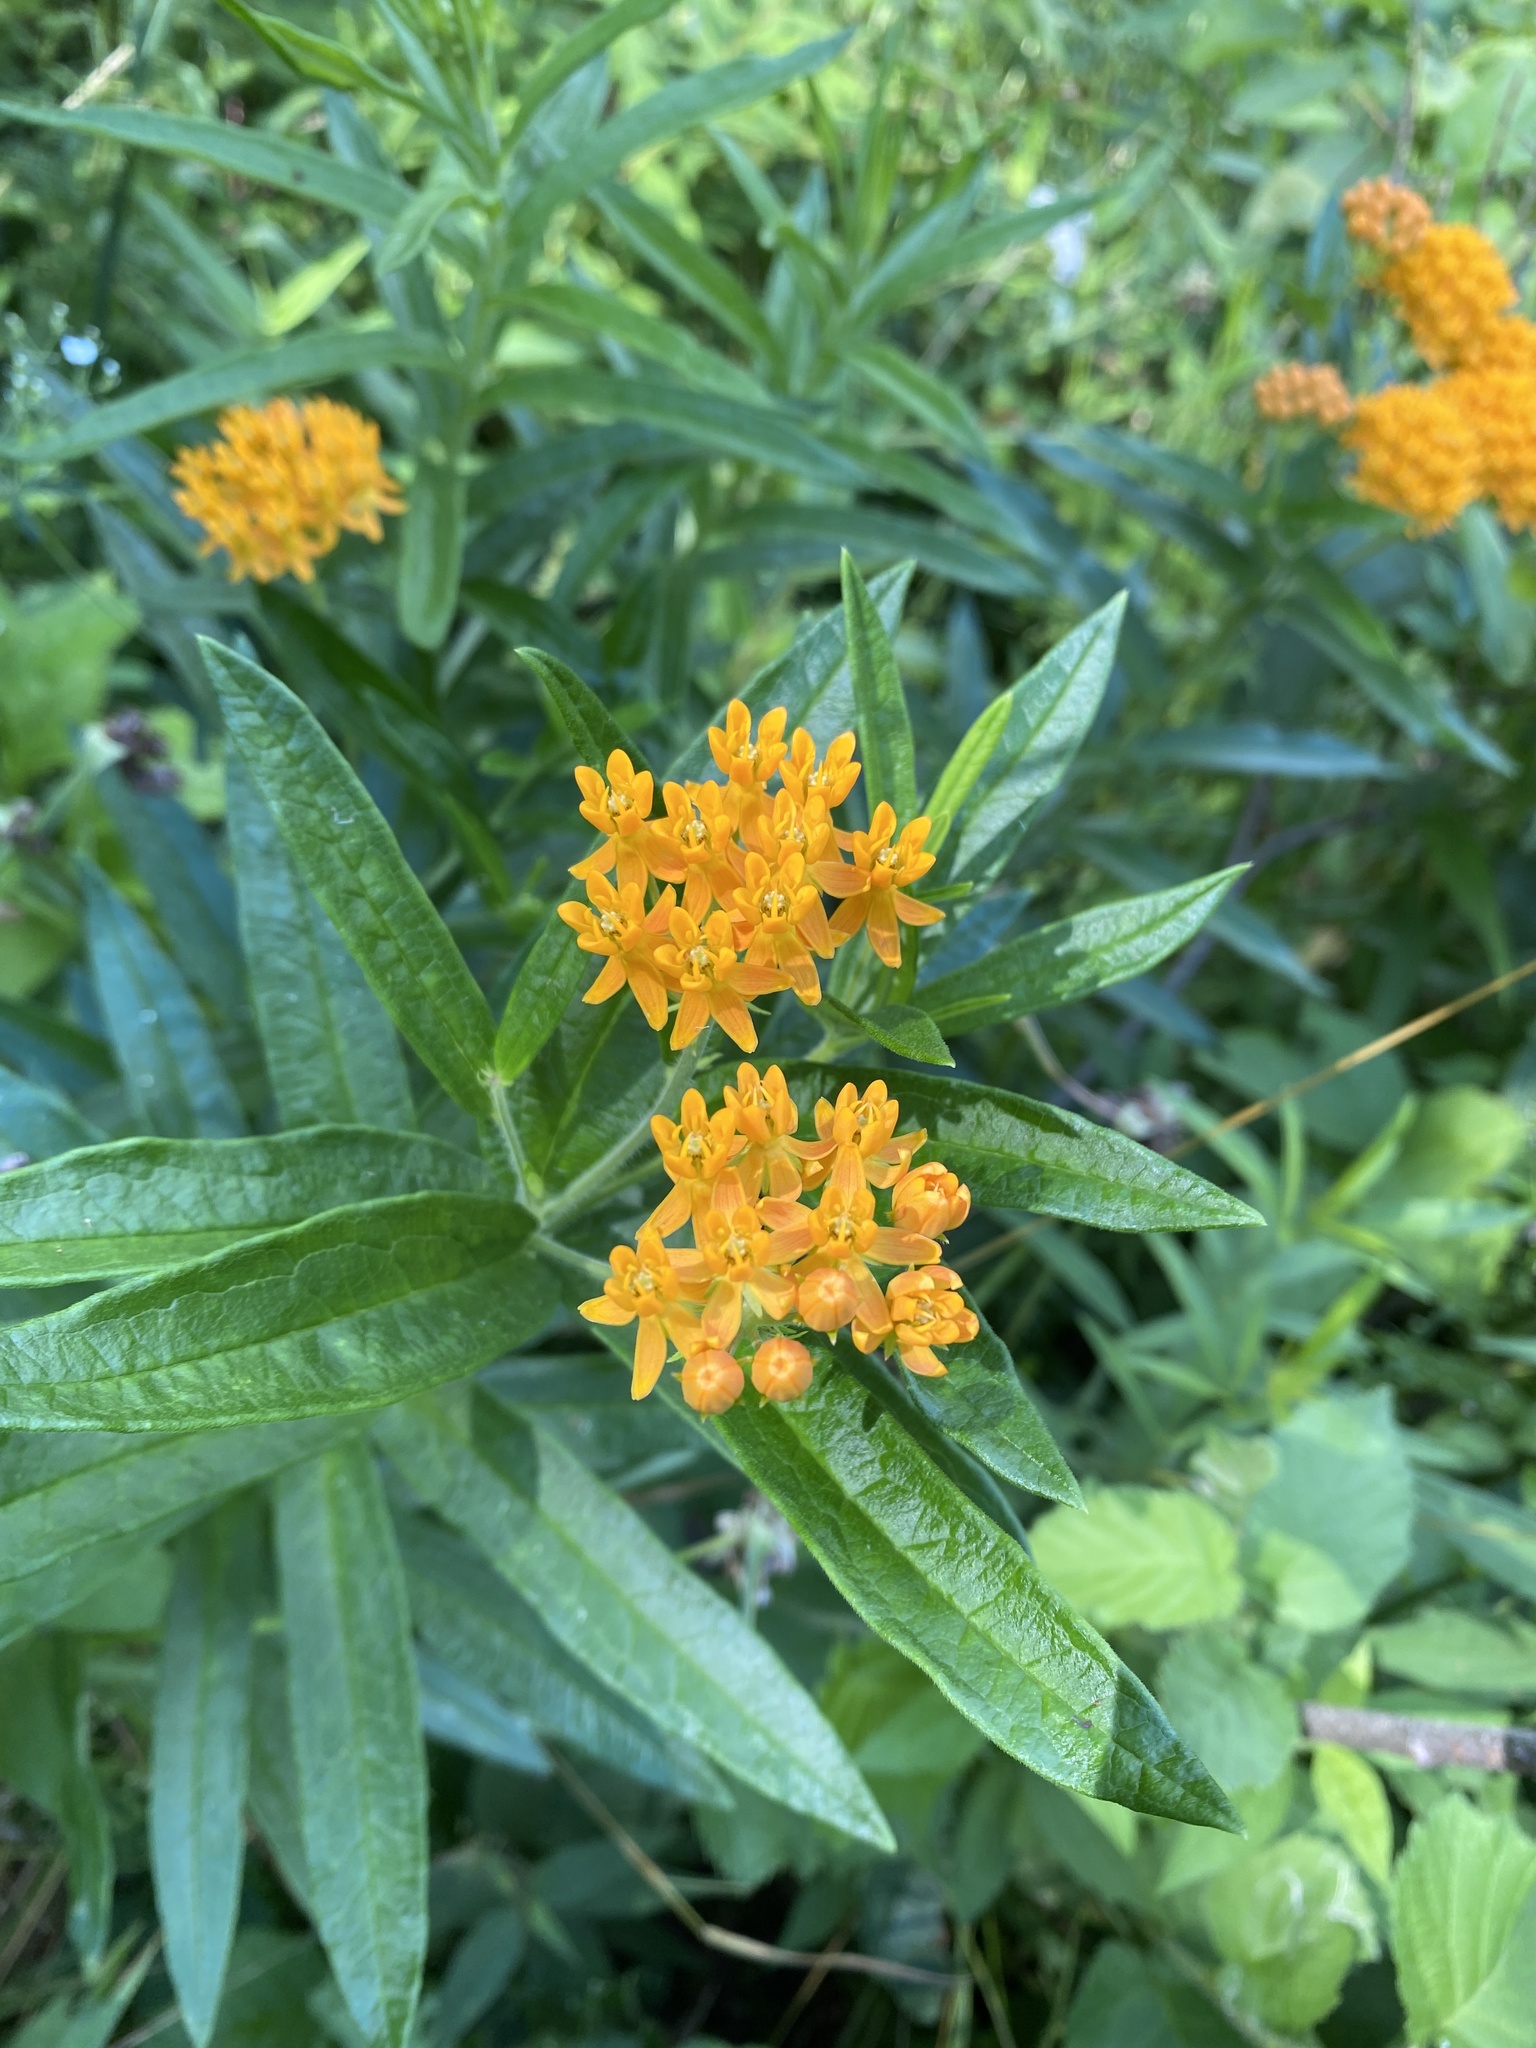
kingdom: Plantae
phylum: Tracheophyta
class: Magnoliopsida
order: Gentianales
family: Apocynaceae
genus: Asclepias
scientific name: Asclepias tuberosa
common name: Butterfly milkweed
